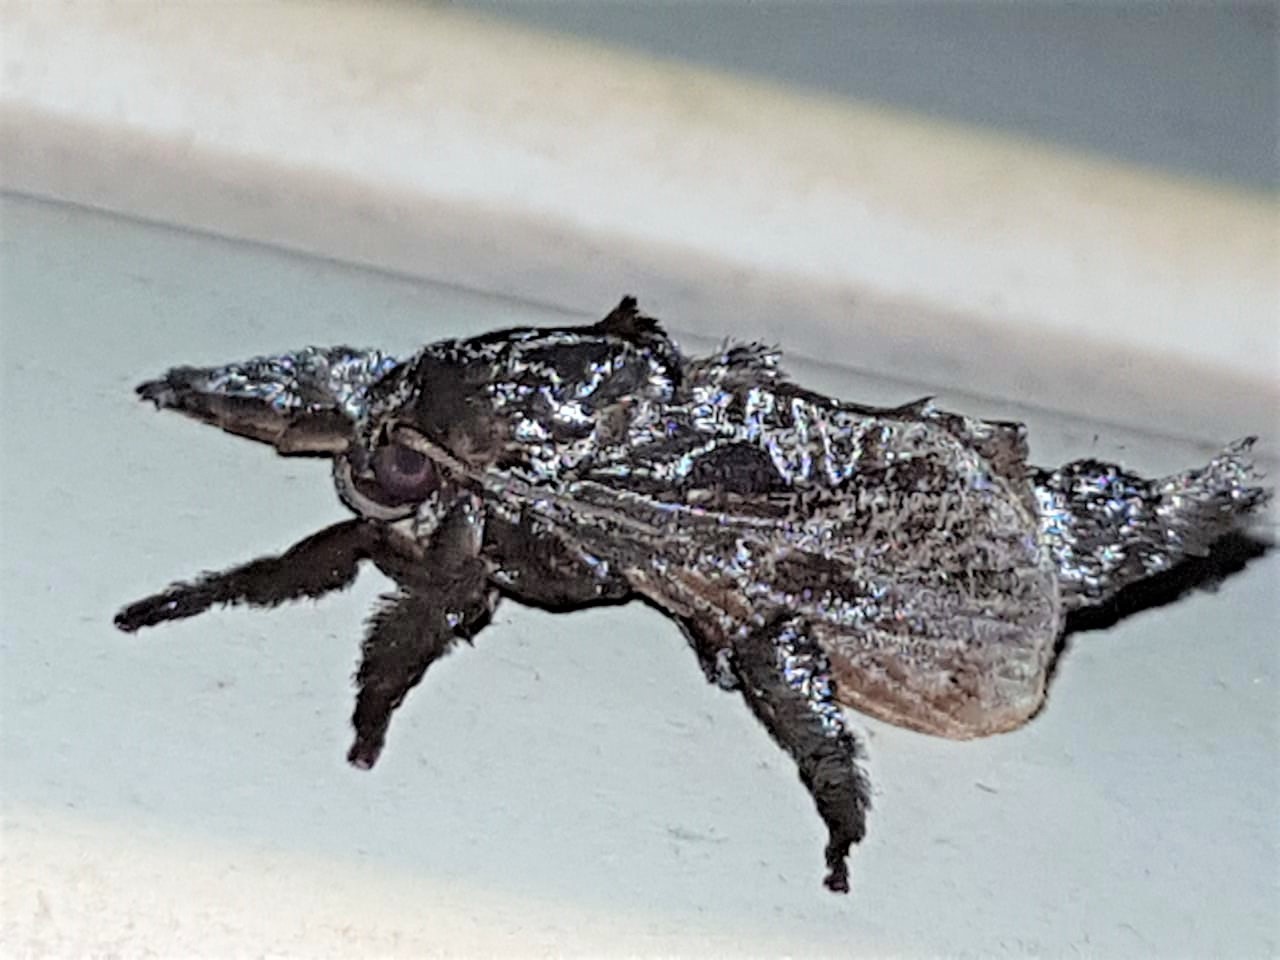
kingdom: Animalia
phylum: Arthropoda
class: Insecta
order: Lepidoptera
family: Limacodidae
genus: Sibine
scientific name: Sibine nesea
